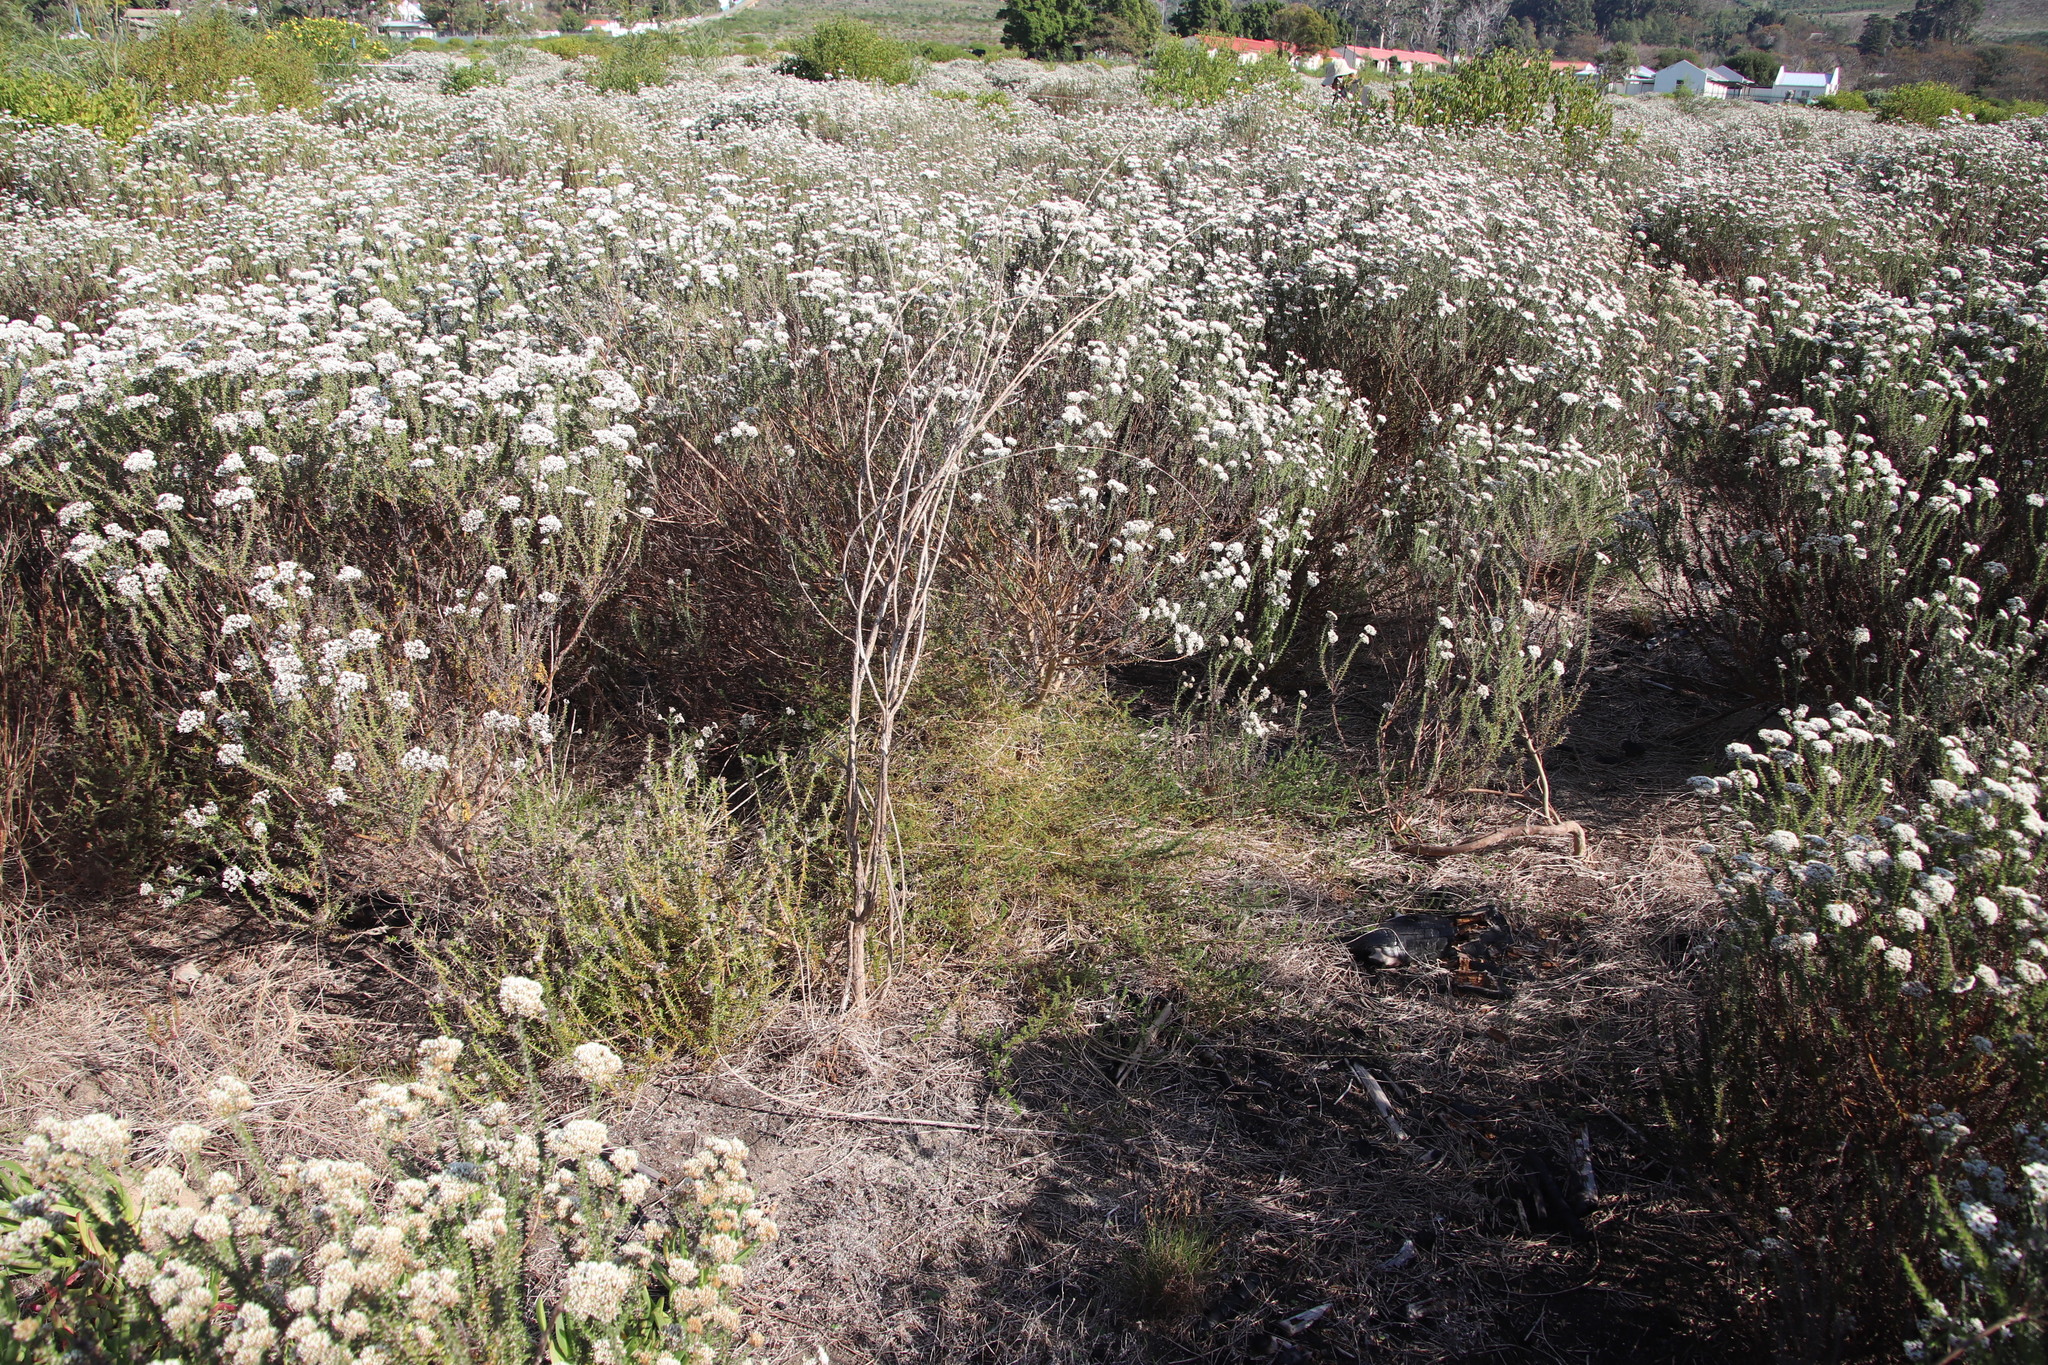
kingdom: Plantae
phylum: Tracheophyta
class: Magnoliopsida
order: Fabales
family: Fabaceae
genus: Aspalathus
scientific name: Aspalathus retroflexa
